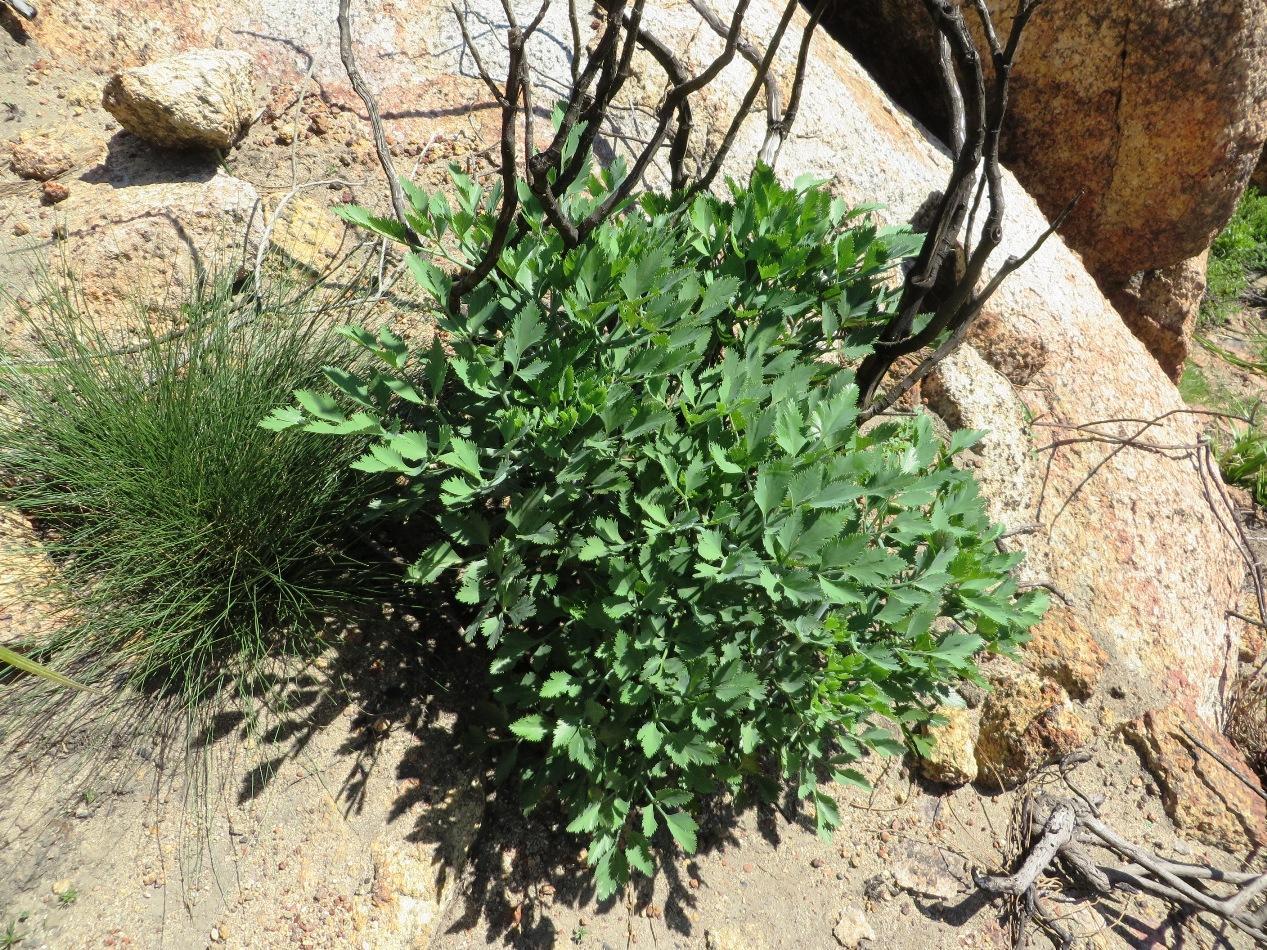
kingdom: Plantae
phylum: Tracheophyta
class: Magnoliopsida
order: Apiales
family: Apiaceae
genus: Notobubon
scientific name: Notobubon galbanum
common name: Blisterbush
